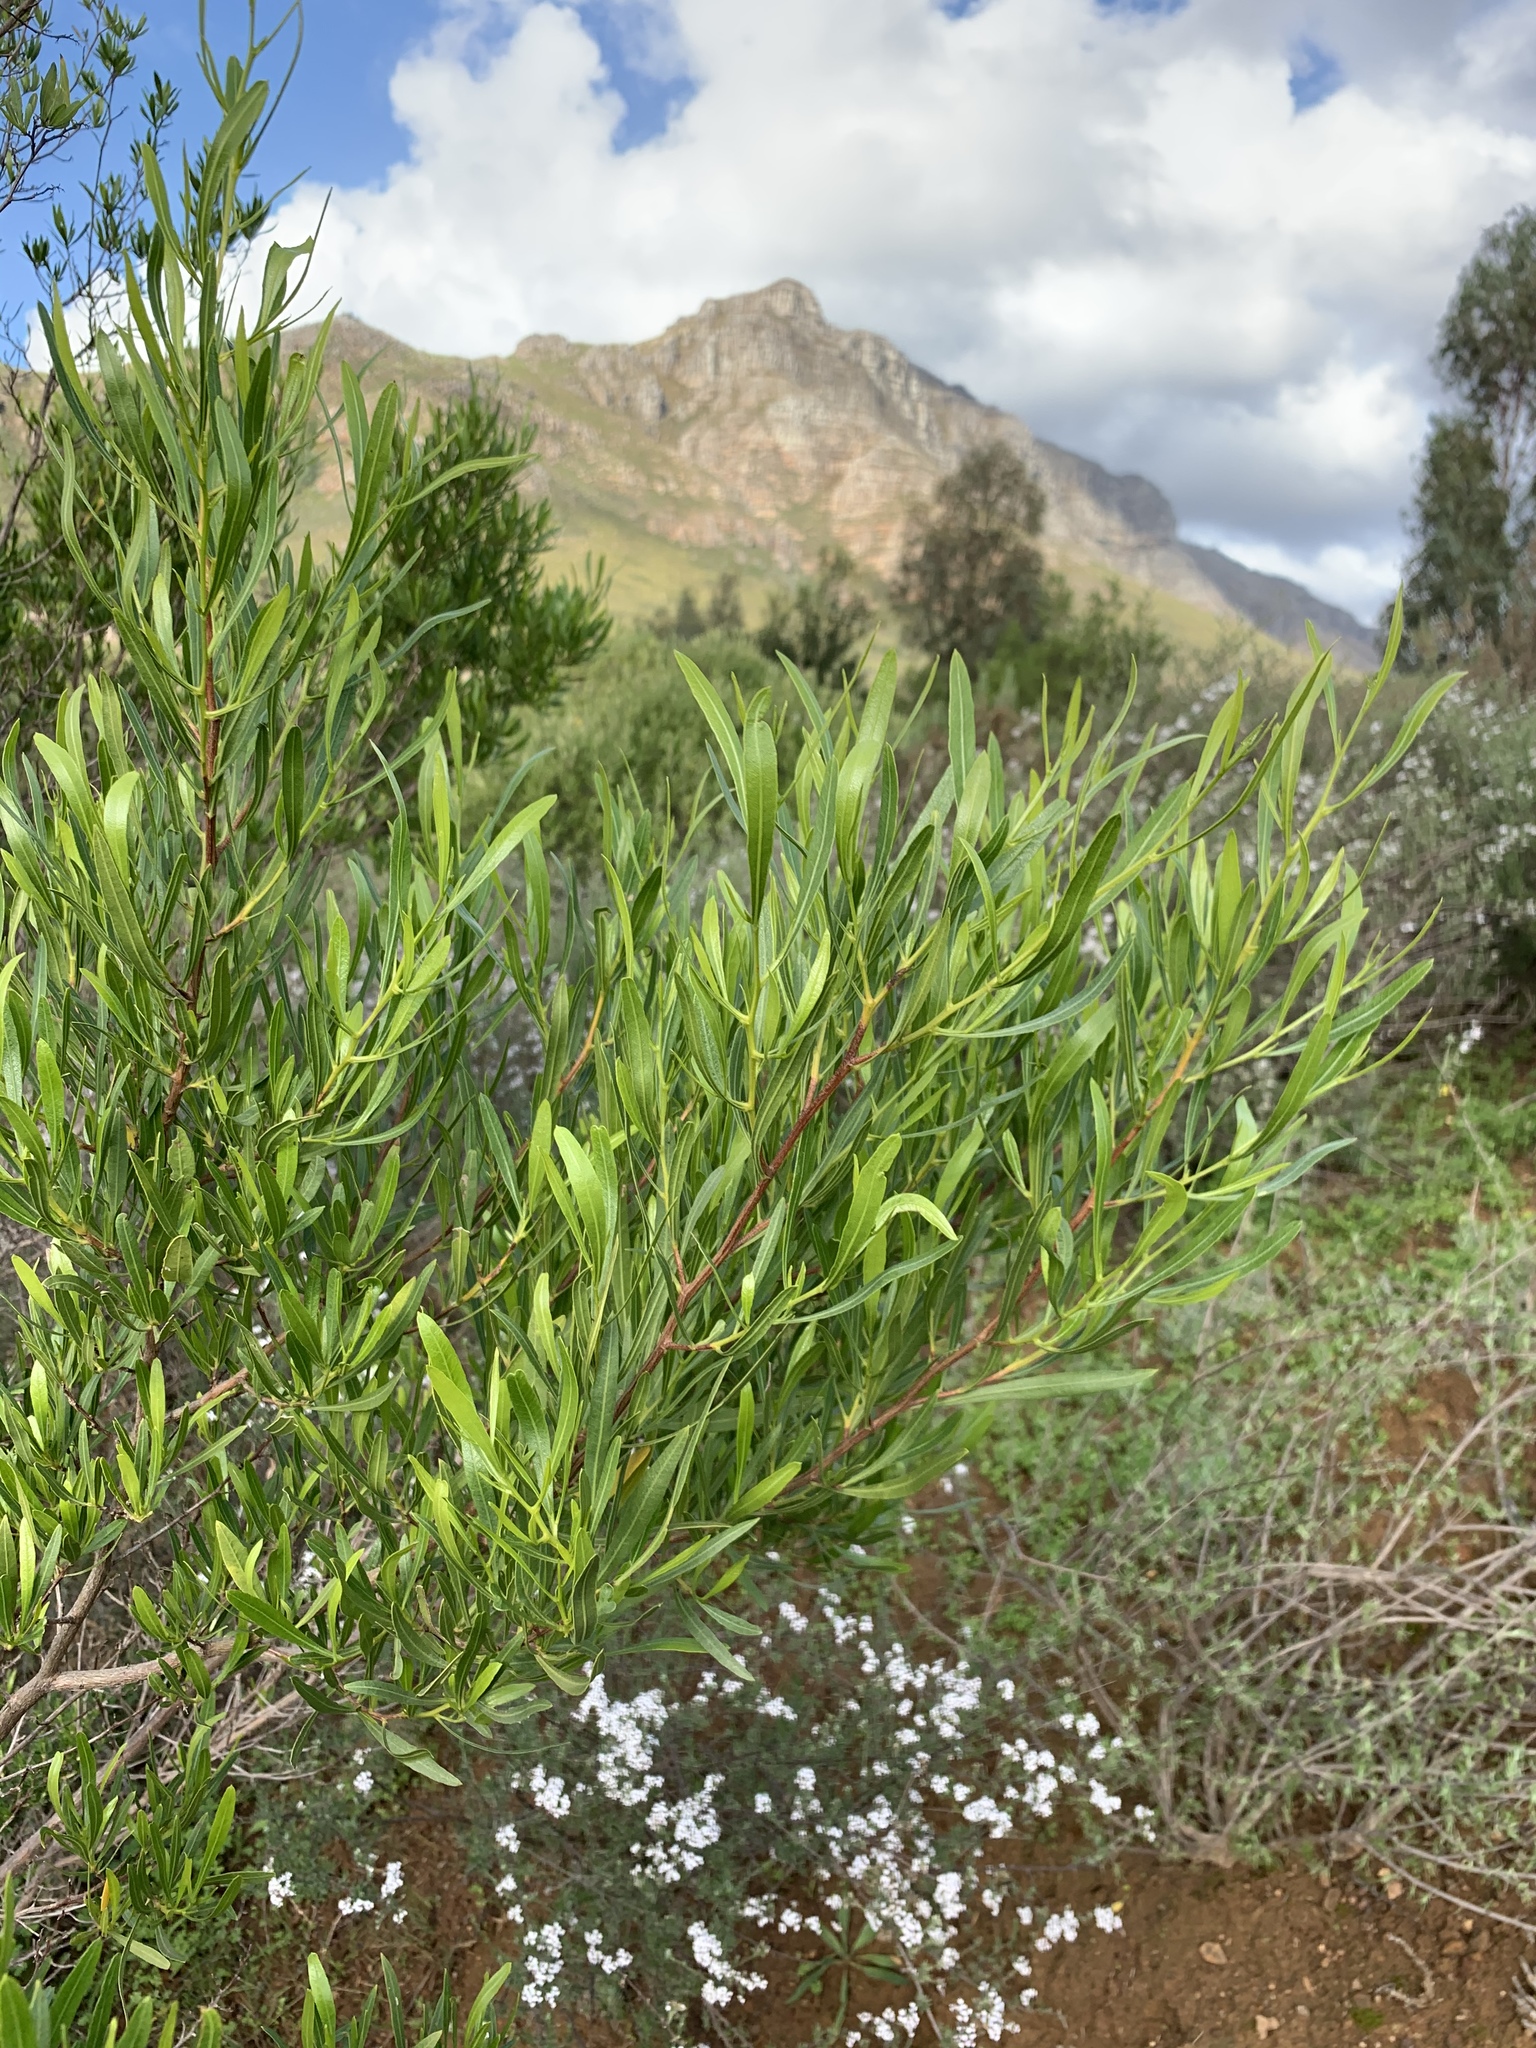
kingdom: Plantae
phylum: Tracheophyta
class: Magnoliopsida
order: Sapindales
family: Sapindaceae
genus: Dodonaea
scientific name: Dodonaea viscosa
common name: Hopbush
